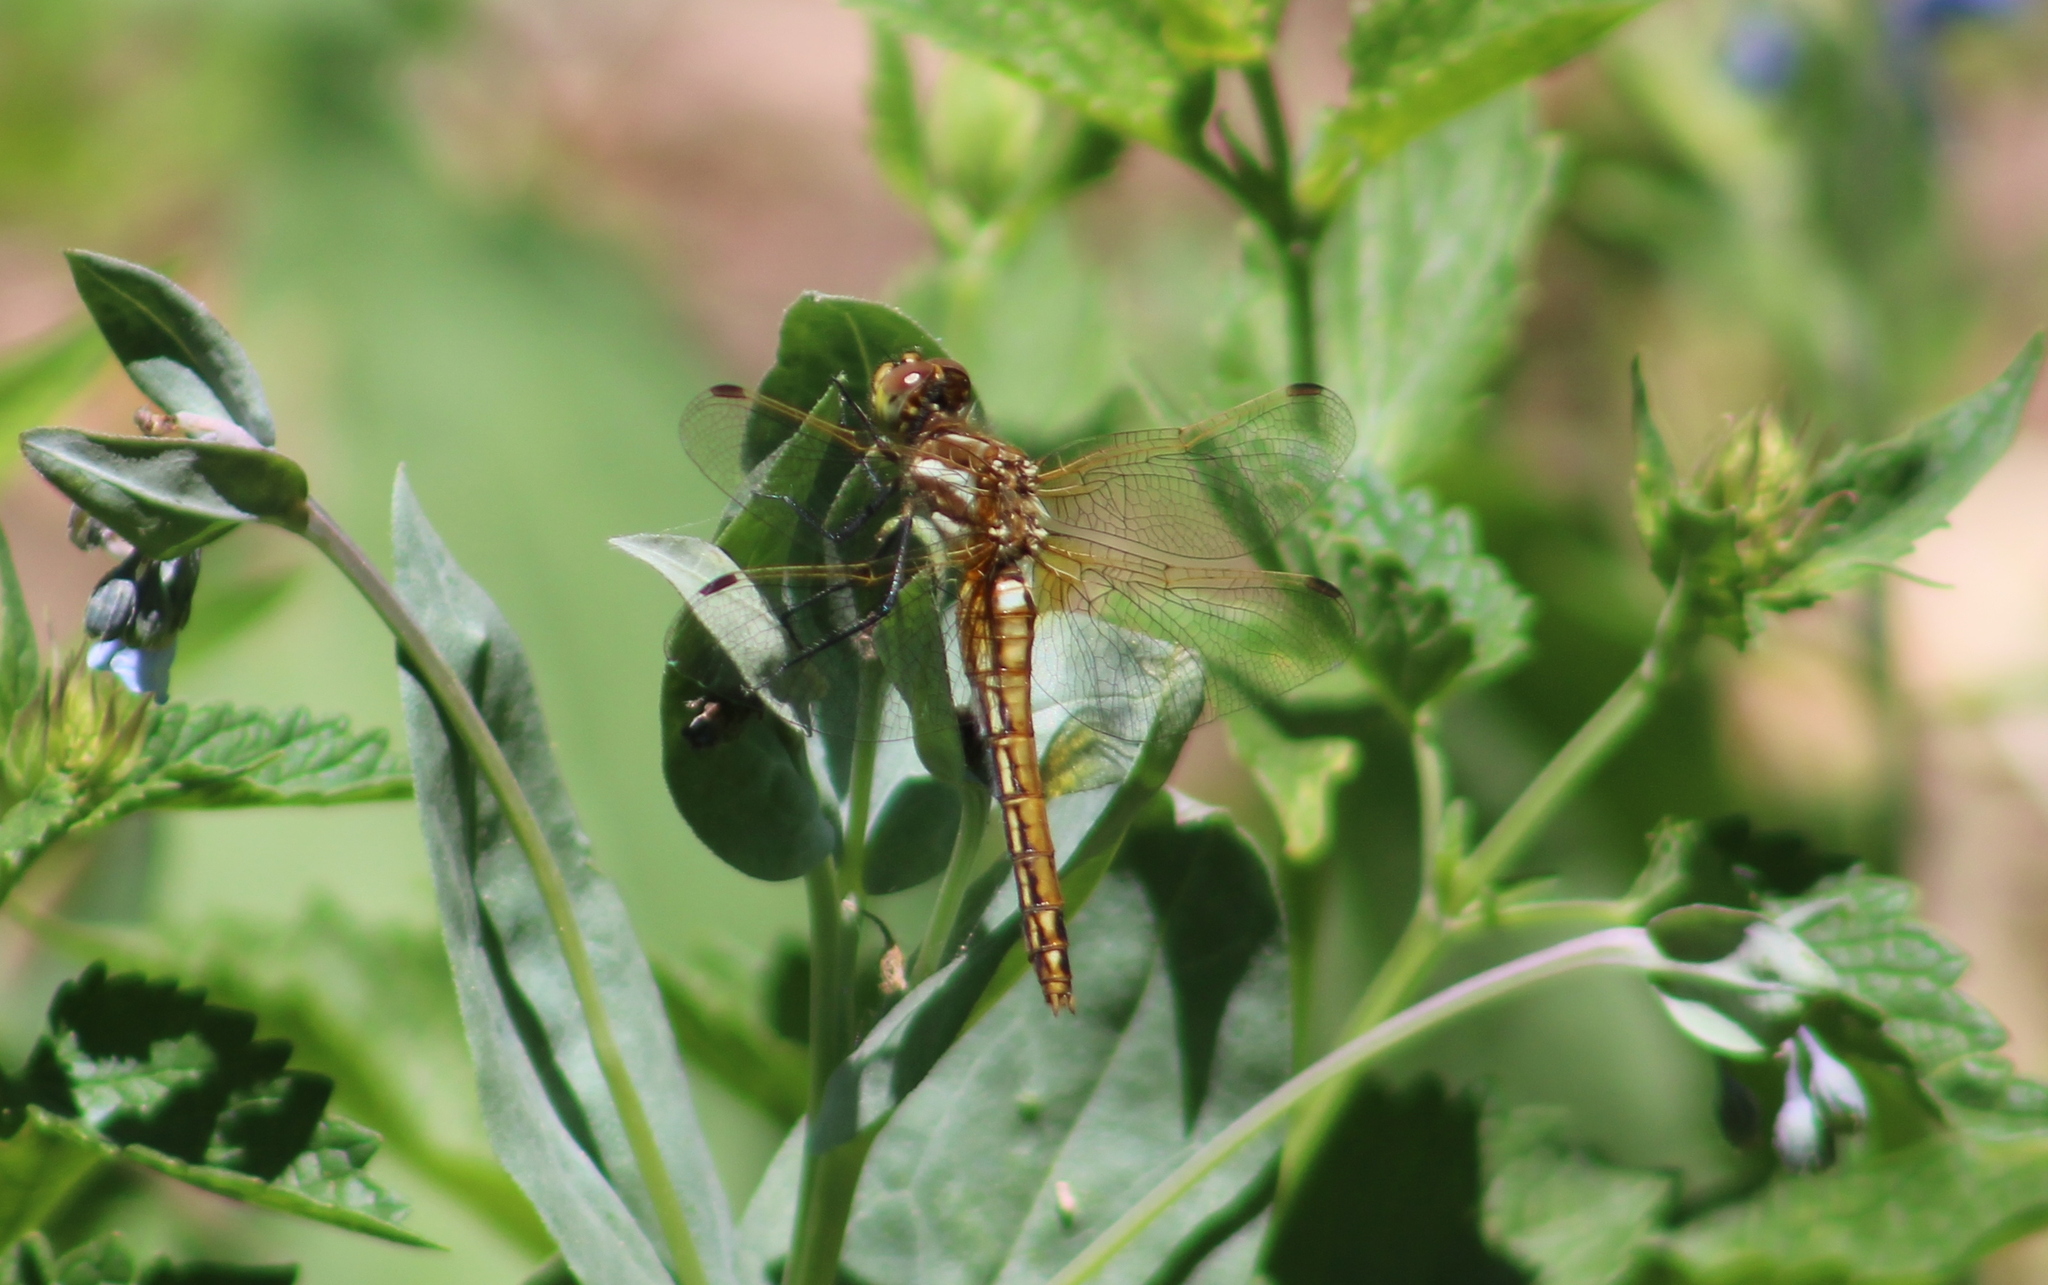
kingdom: Animalia
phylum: Arthropoda
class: Insecta
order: Odonata
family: Libellulidae
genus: Sympetrum
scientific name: Sympetrum madidum
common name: Red-veined meadowhawk
